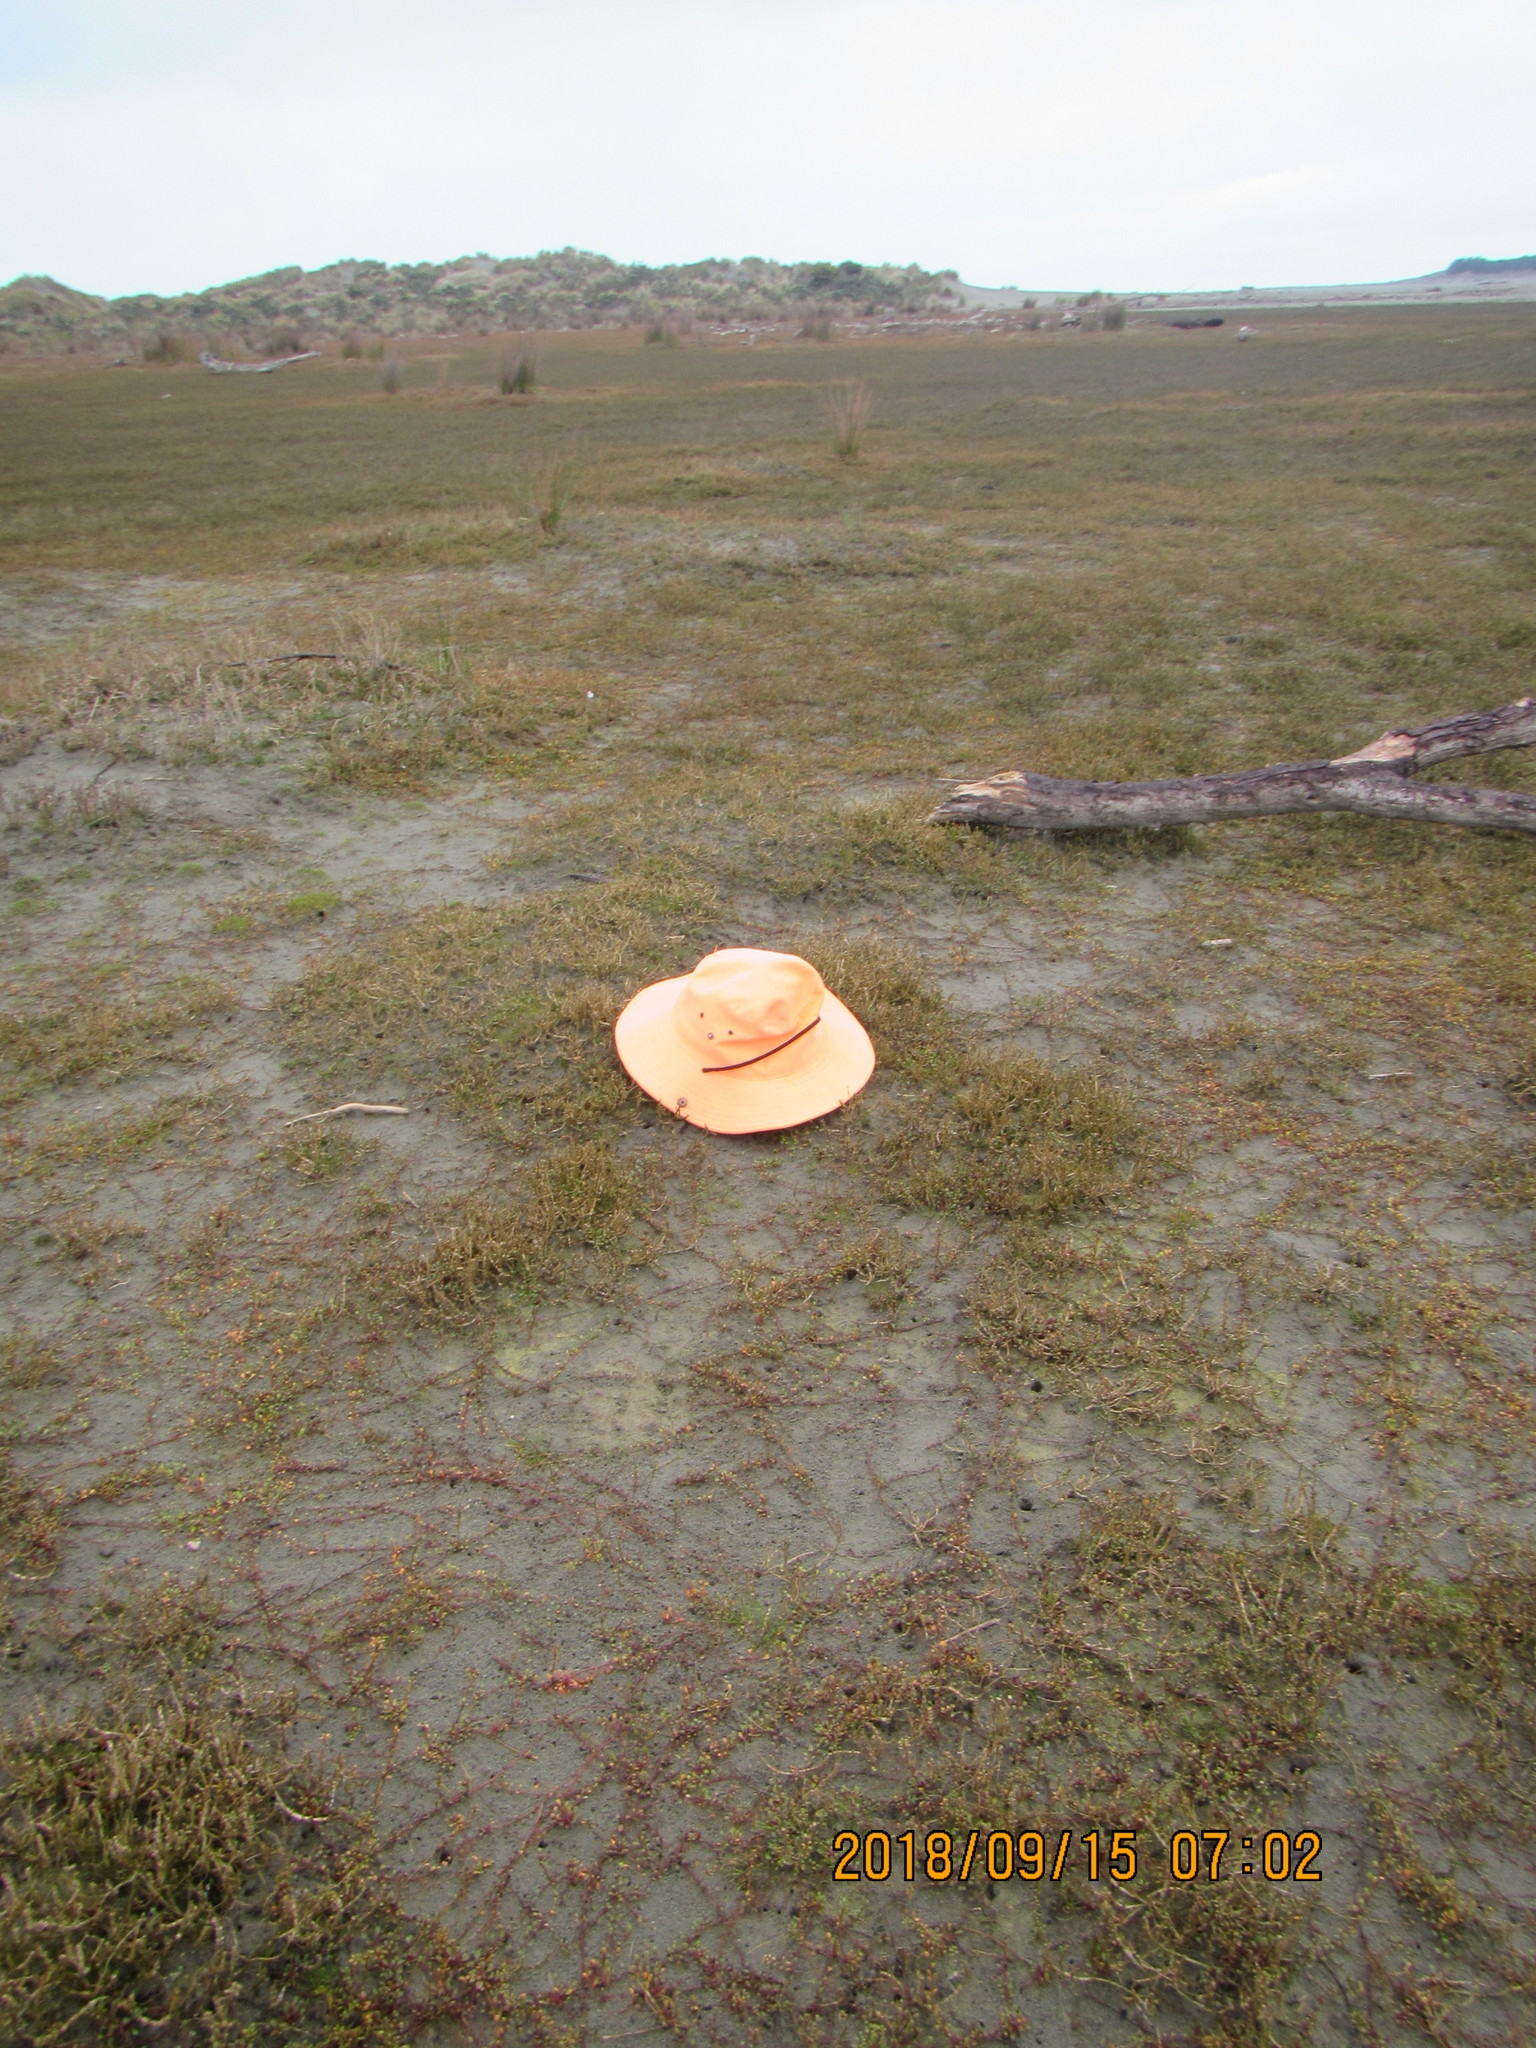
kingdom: Plantae
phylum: Tracheophyta
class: Magnoliopsida
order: Caryophyllales
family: Amaranthaceae
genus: Salicornia
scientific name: Salicornia quinqueflora
